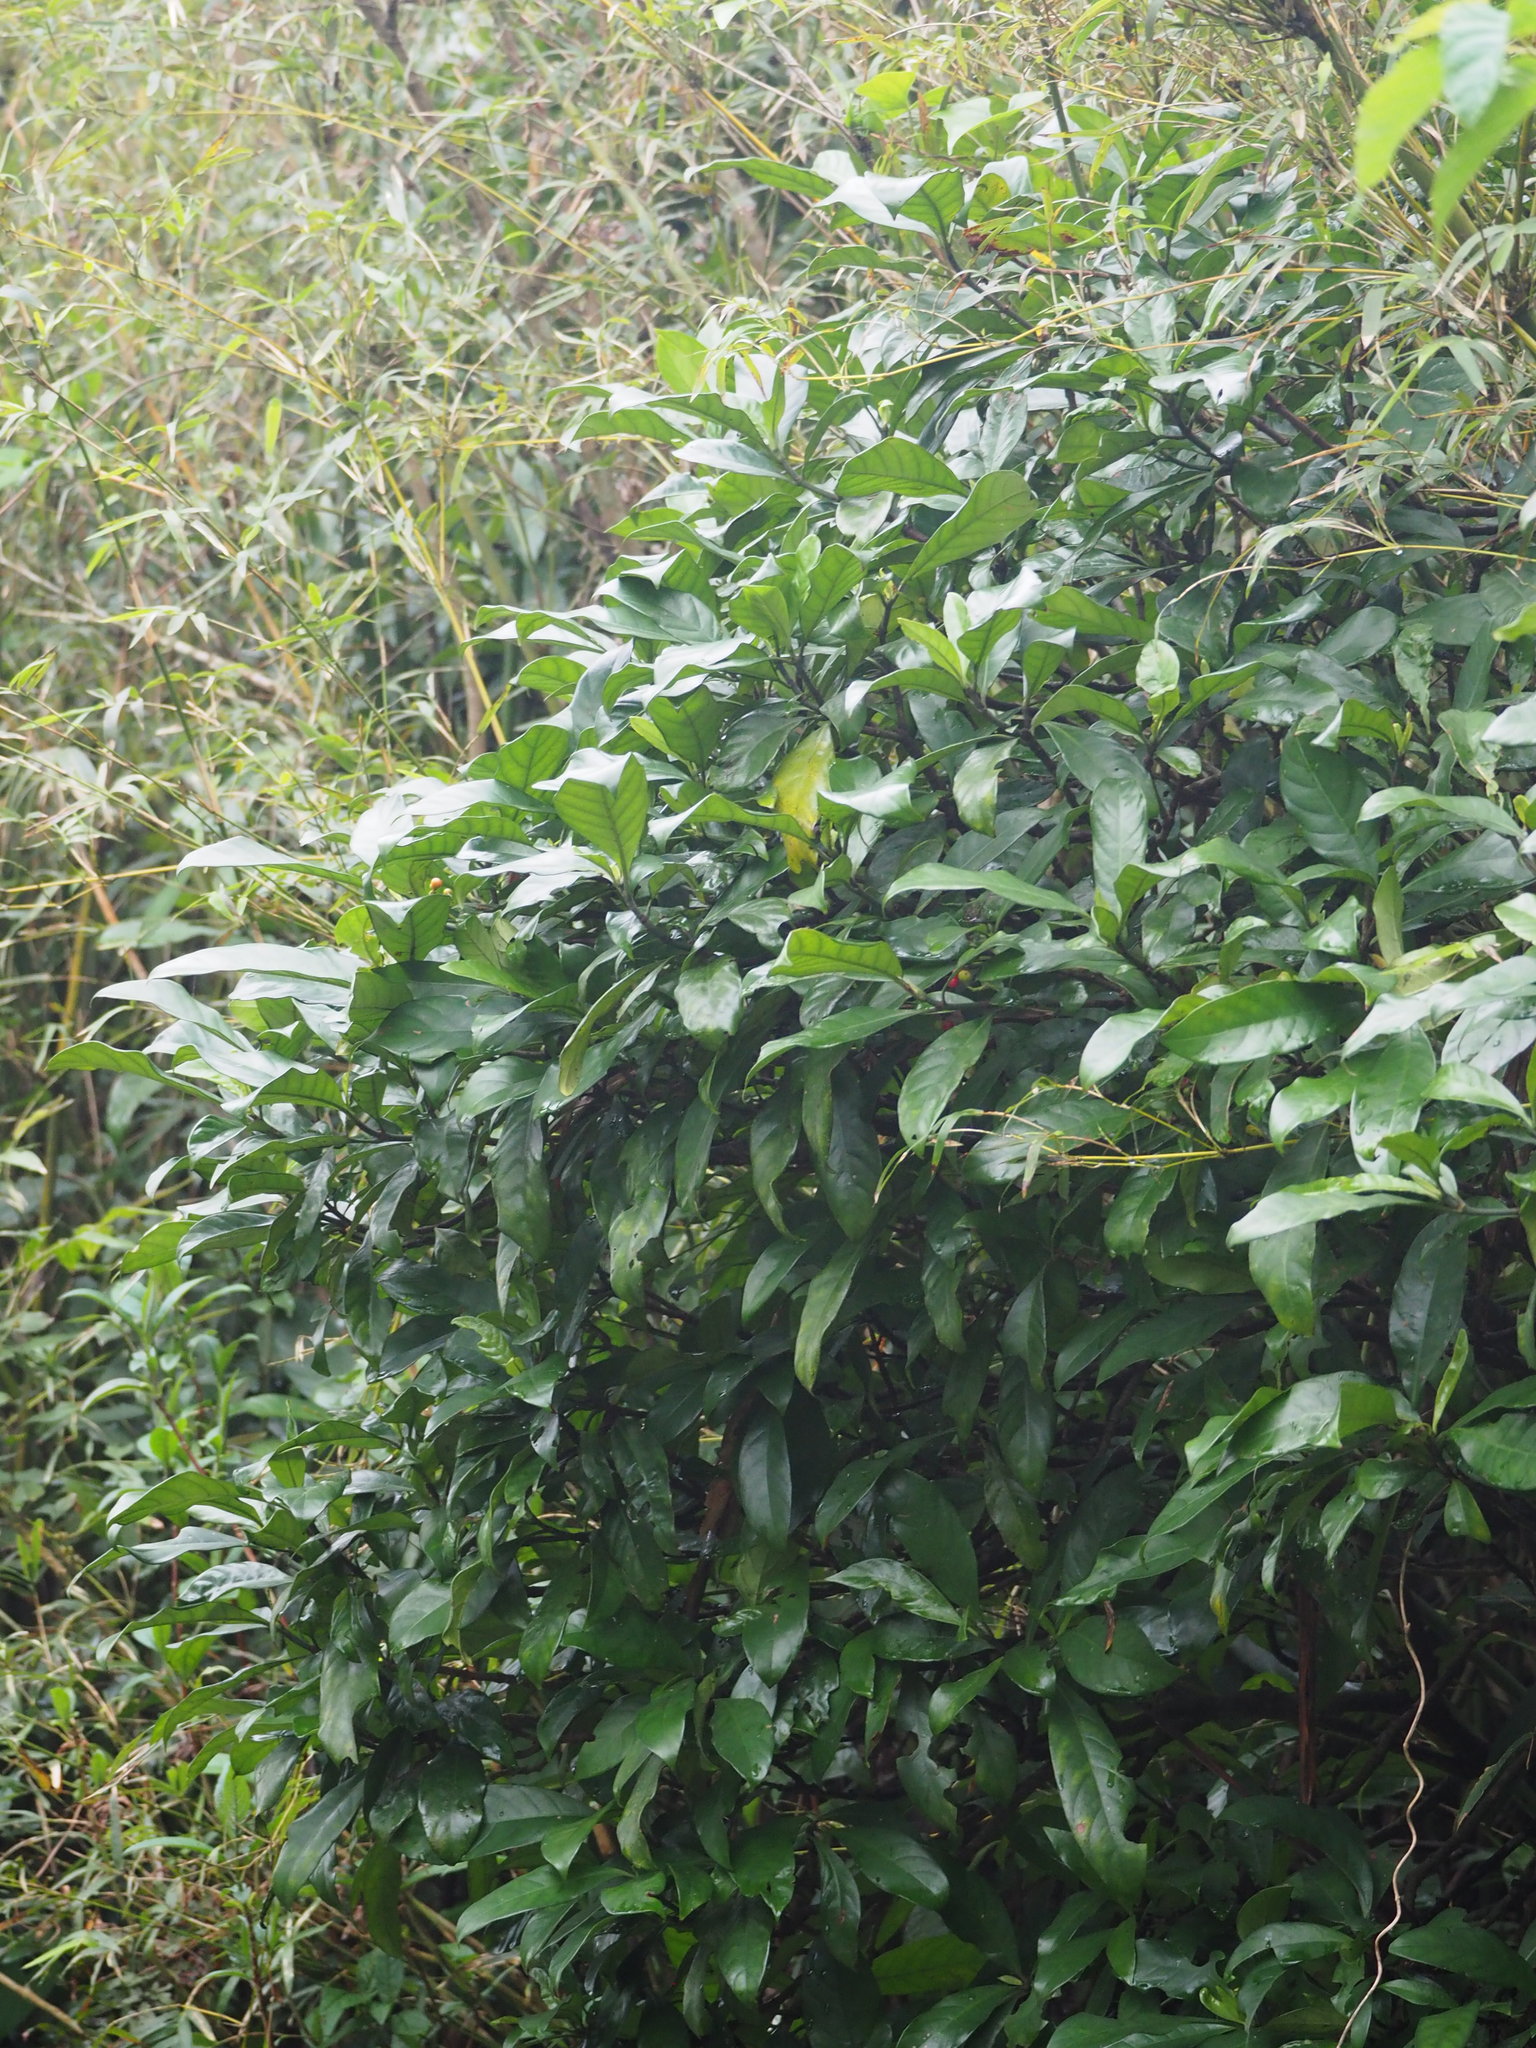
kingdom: Plantae
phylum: Tracheophyta
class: Magnoliopsida
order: Gentianales
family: Rubiaceae
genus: Psychotria
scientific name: Psychotria asiatica
